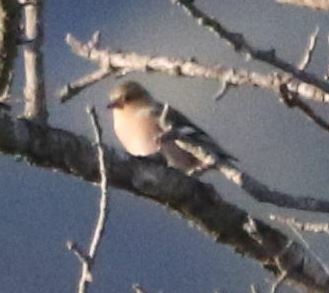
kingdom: Animalia
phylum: Chordata
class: Aves
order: Passeriformes
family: Fringillidae
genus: Fringilla
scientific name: Fringilla coelebs
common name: Common chaffinch
